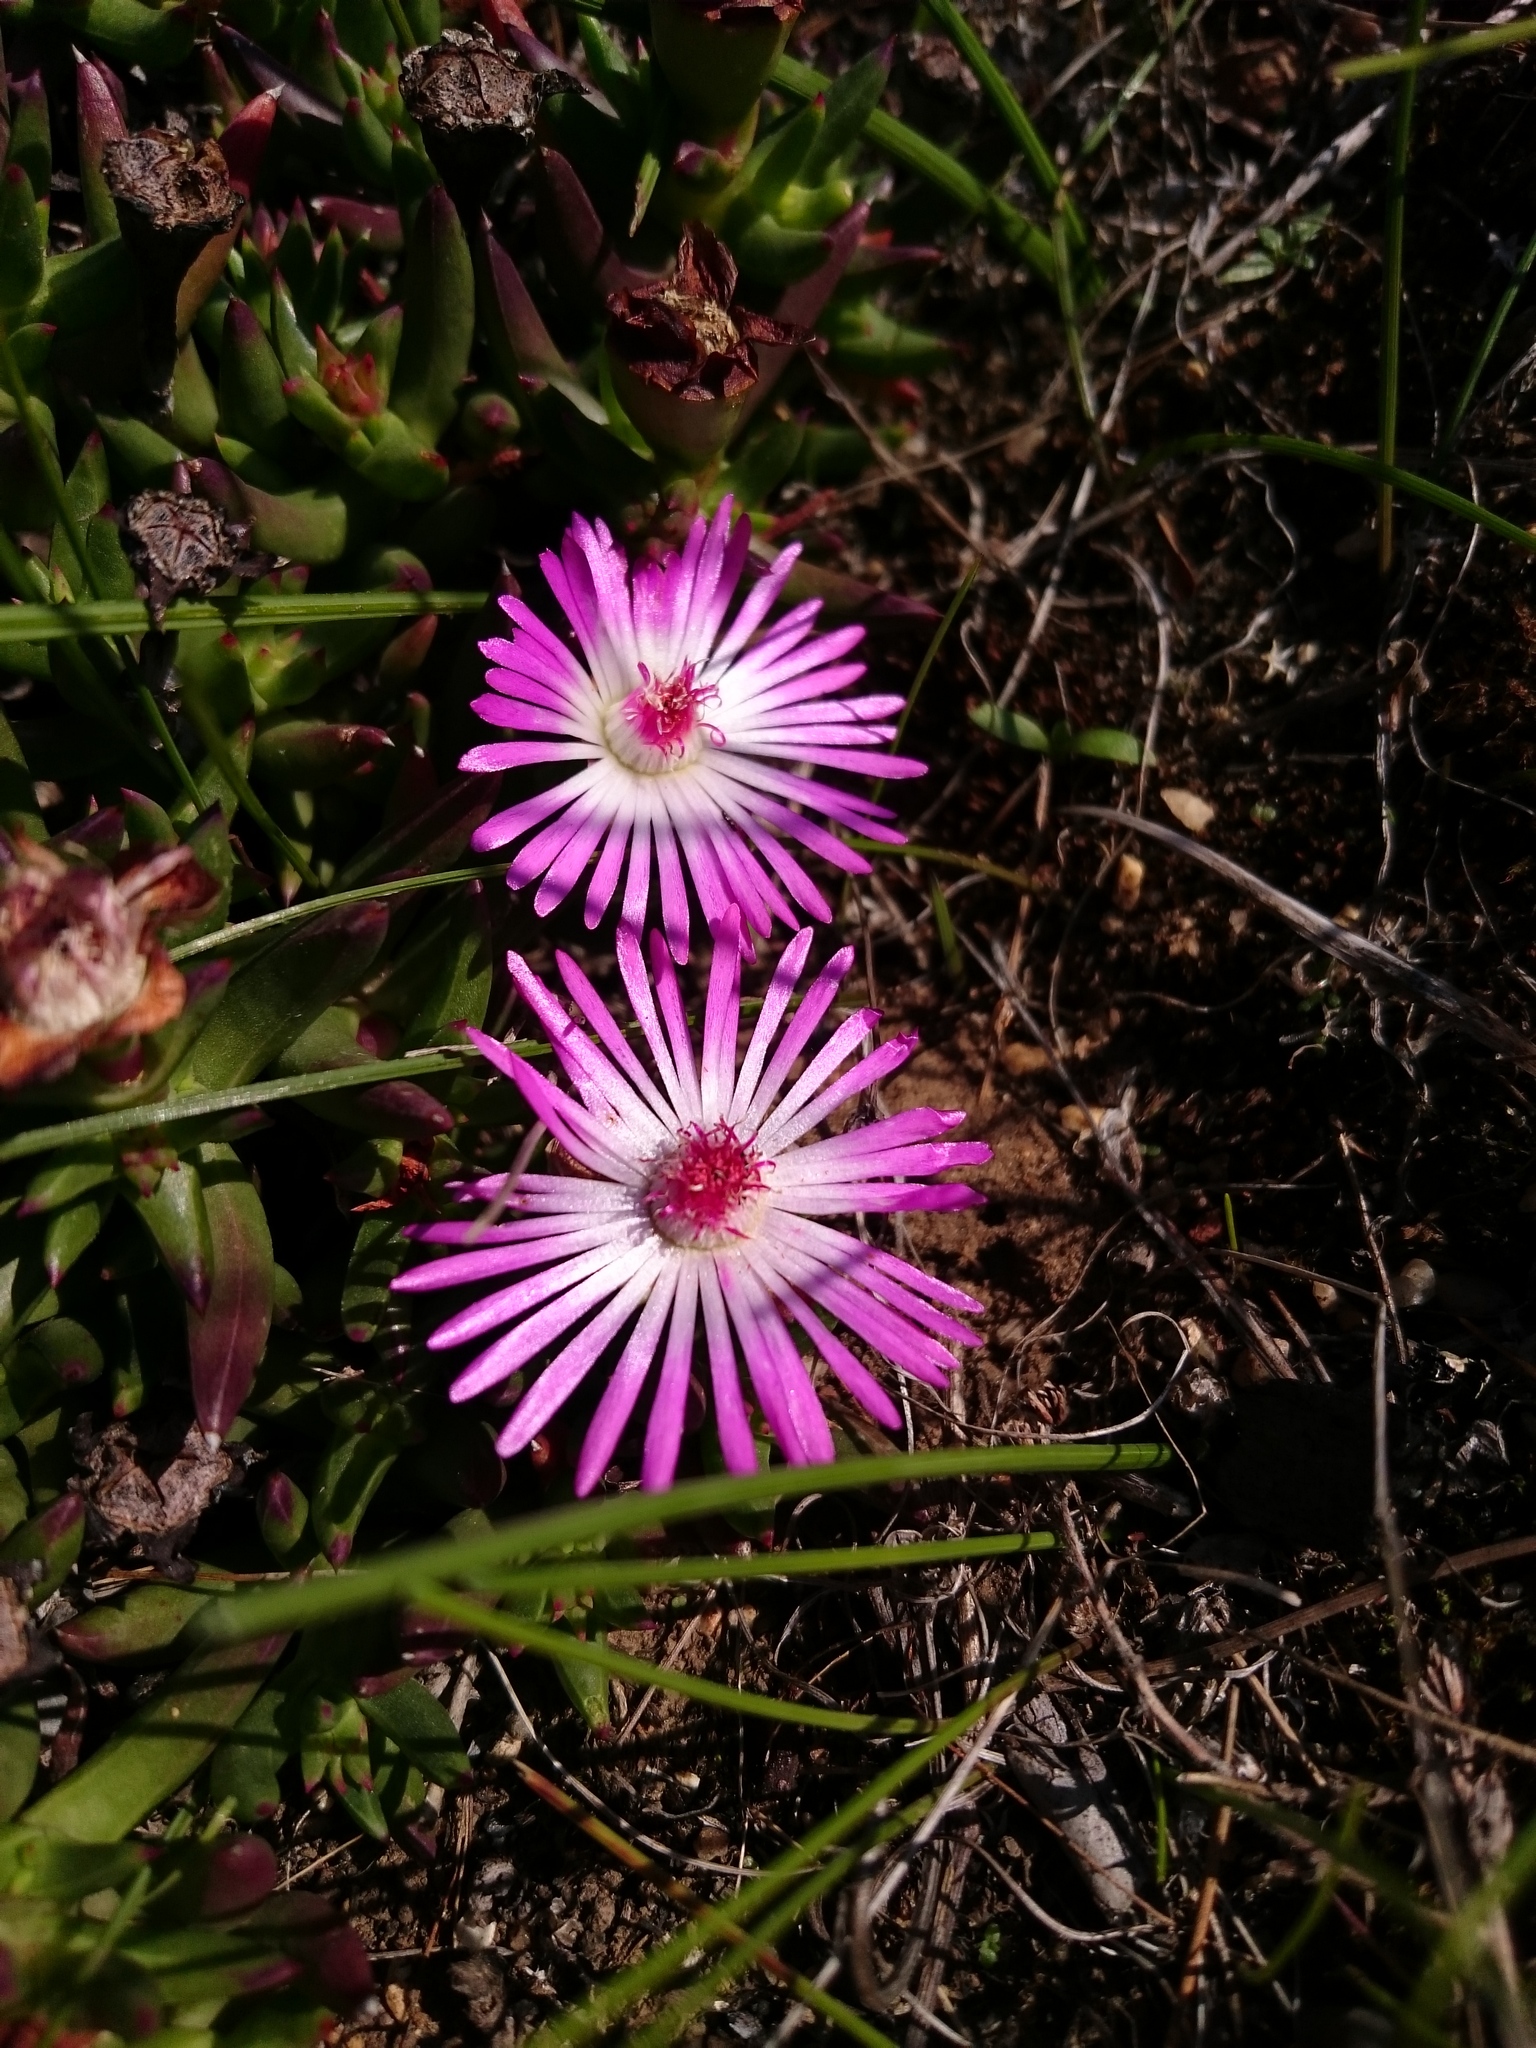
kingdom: Plantae
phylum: Tracheophyta
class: Magnoliopsida
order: Caryophyllales
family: Aizoaceae
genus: Lampranthus
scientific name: Lampranthus aduncus
